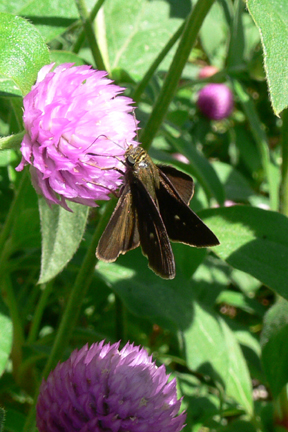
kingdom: Animalia
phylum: Arthropoda
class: Insecta
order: Lepidoptera
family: Hesperiidae
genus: Euphyes
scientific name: Euphyes vestris
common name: Dun skipper
